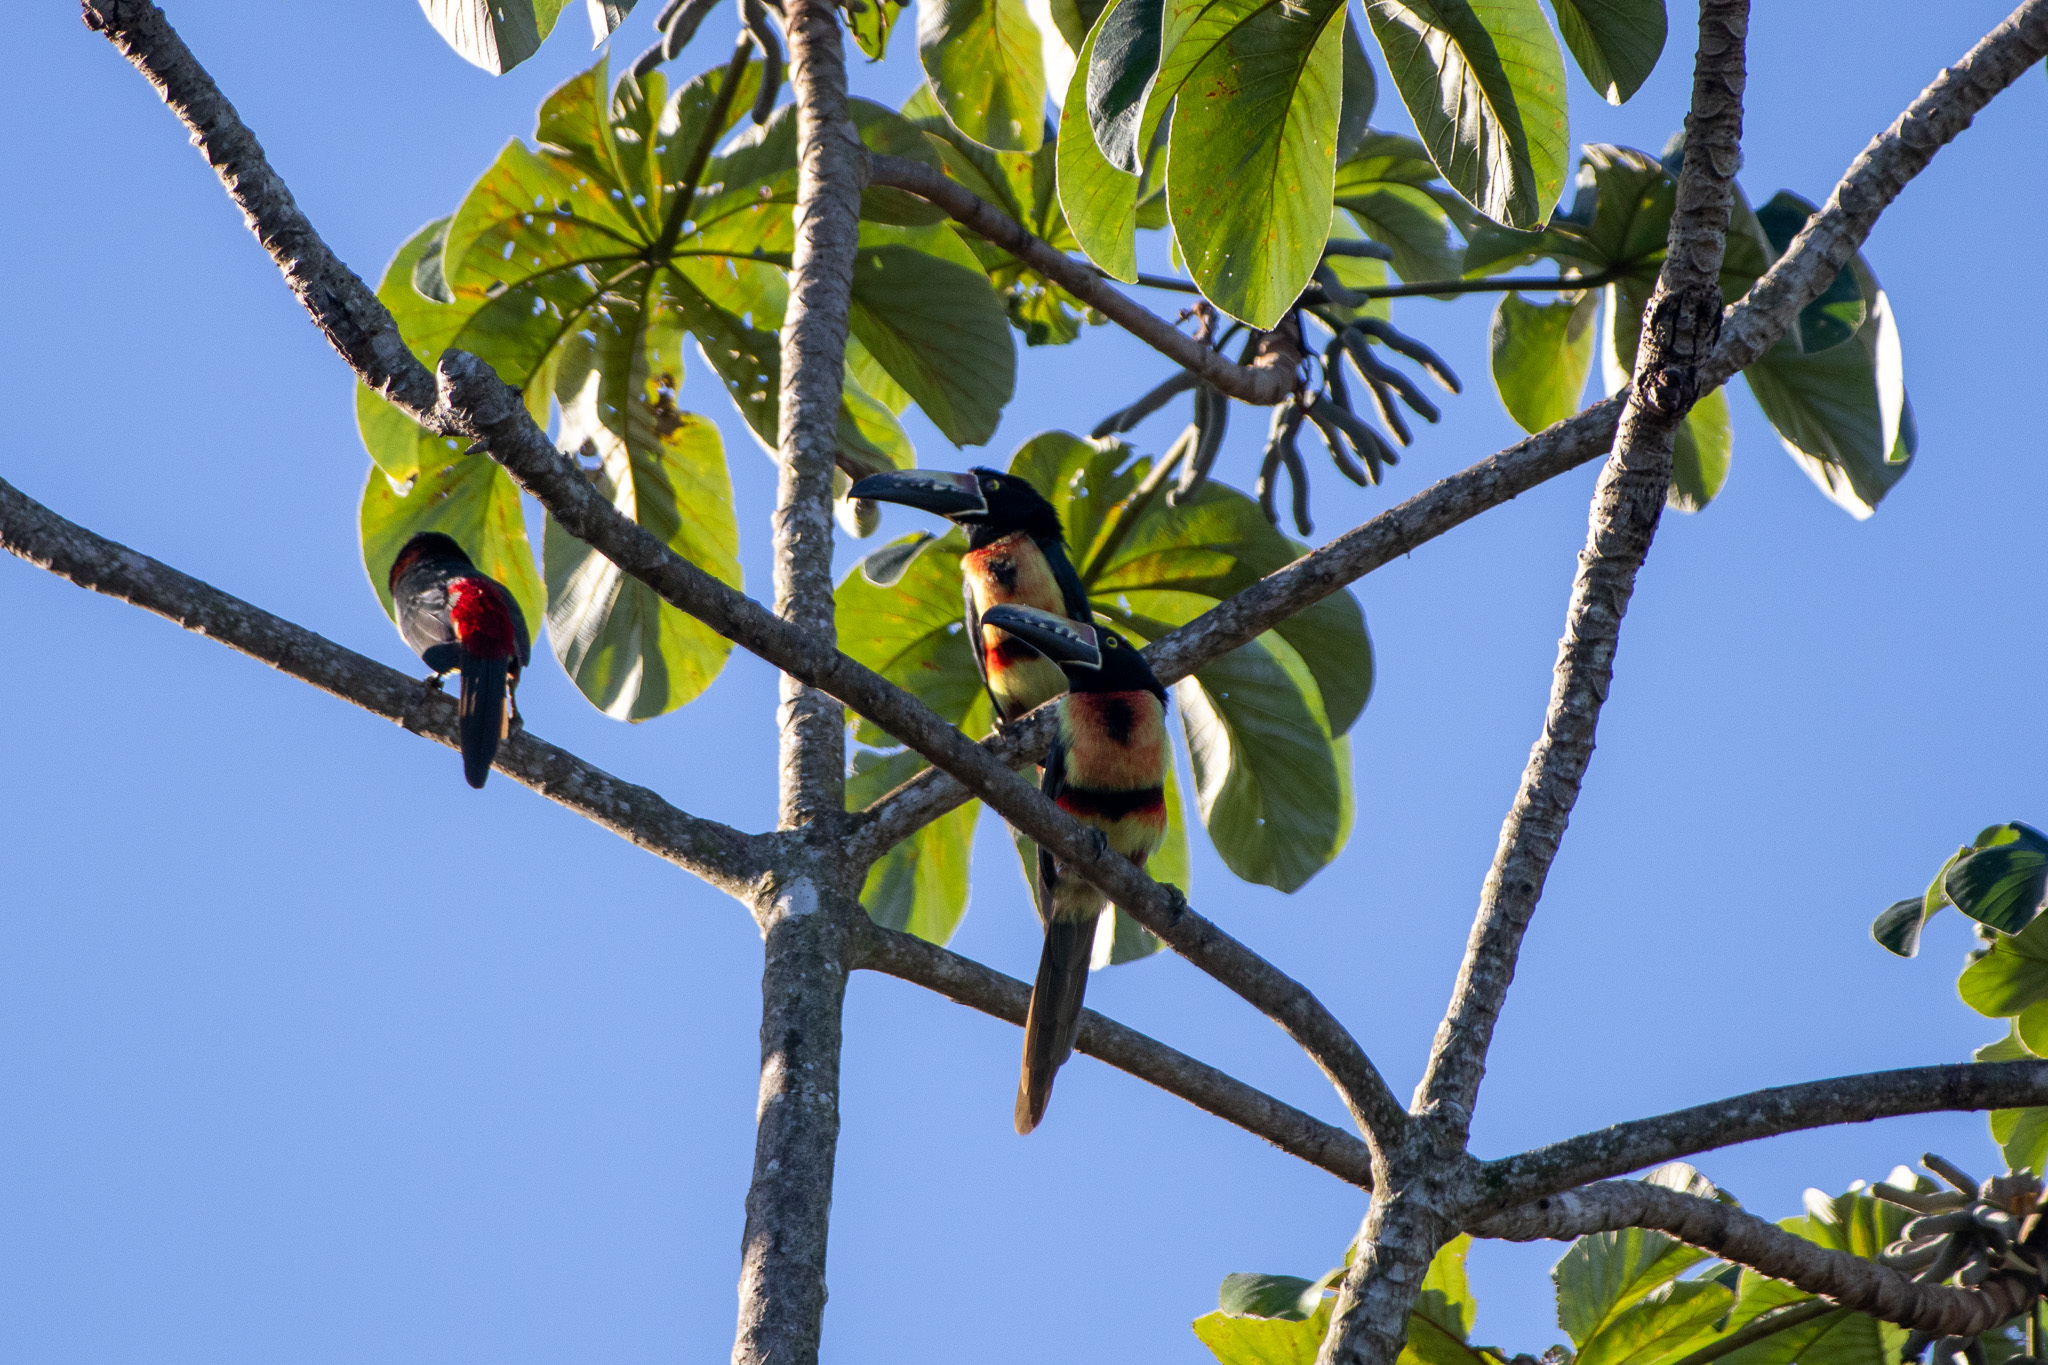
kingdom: Animalia
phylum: Chordata
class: Aves
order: Piciformes
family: Ramphastidae
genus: Pteroglossus
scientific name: Pteroglossus torquatus
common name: Collared aracari
